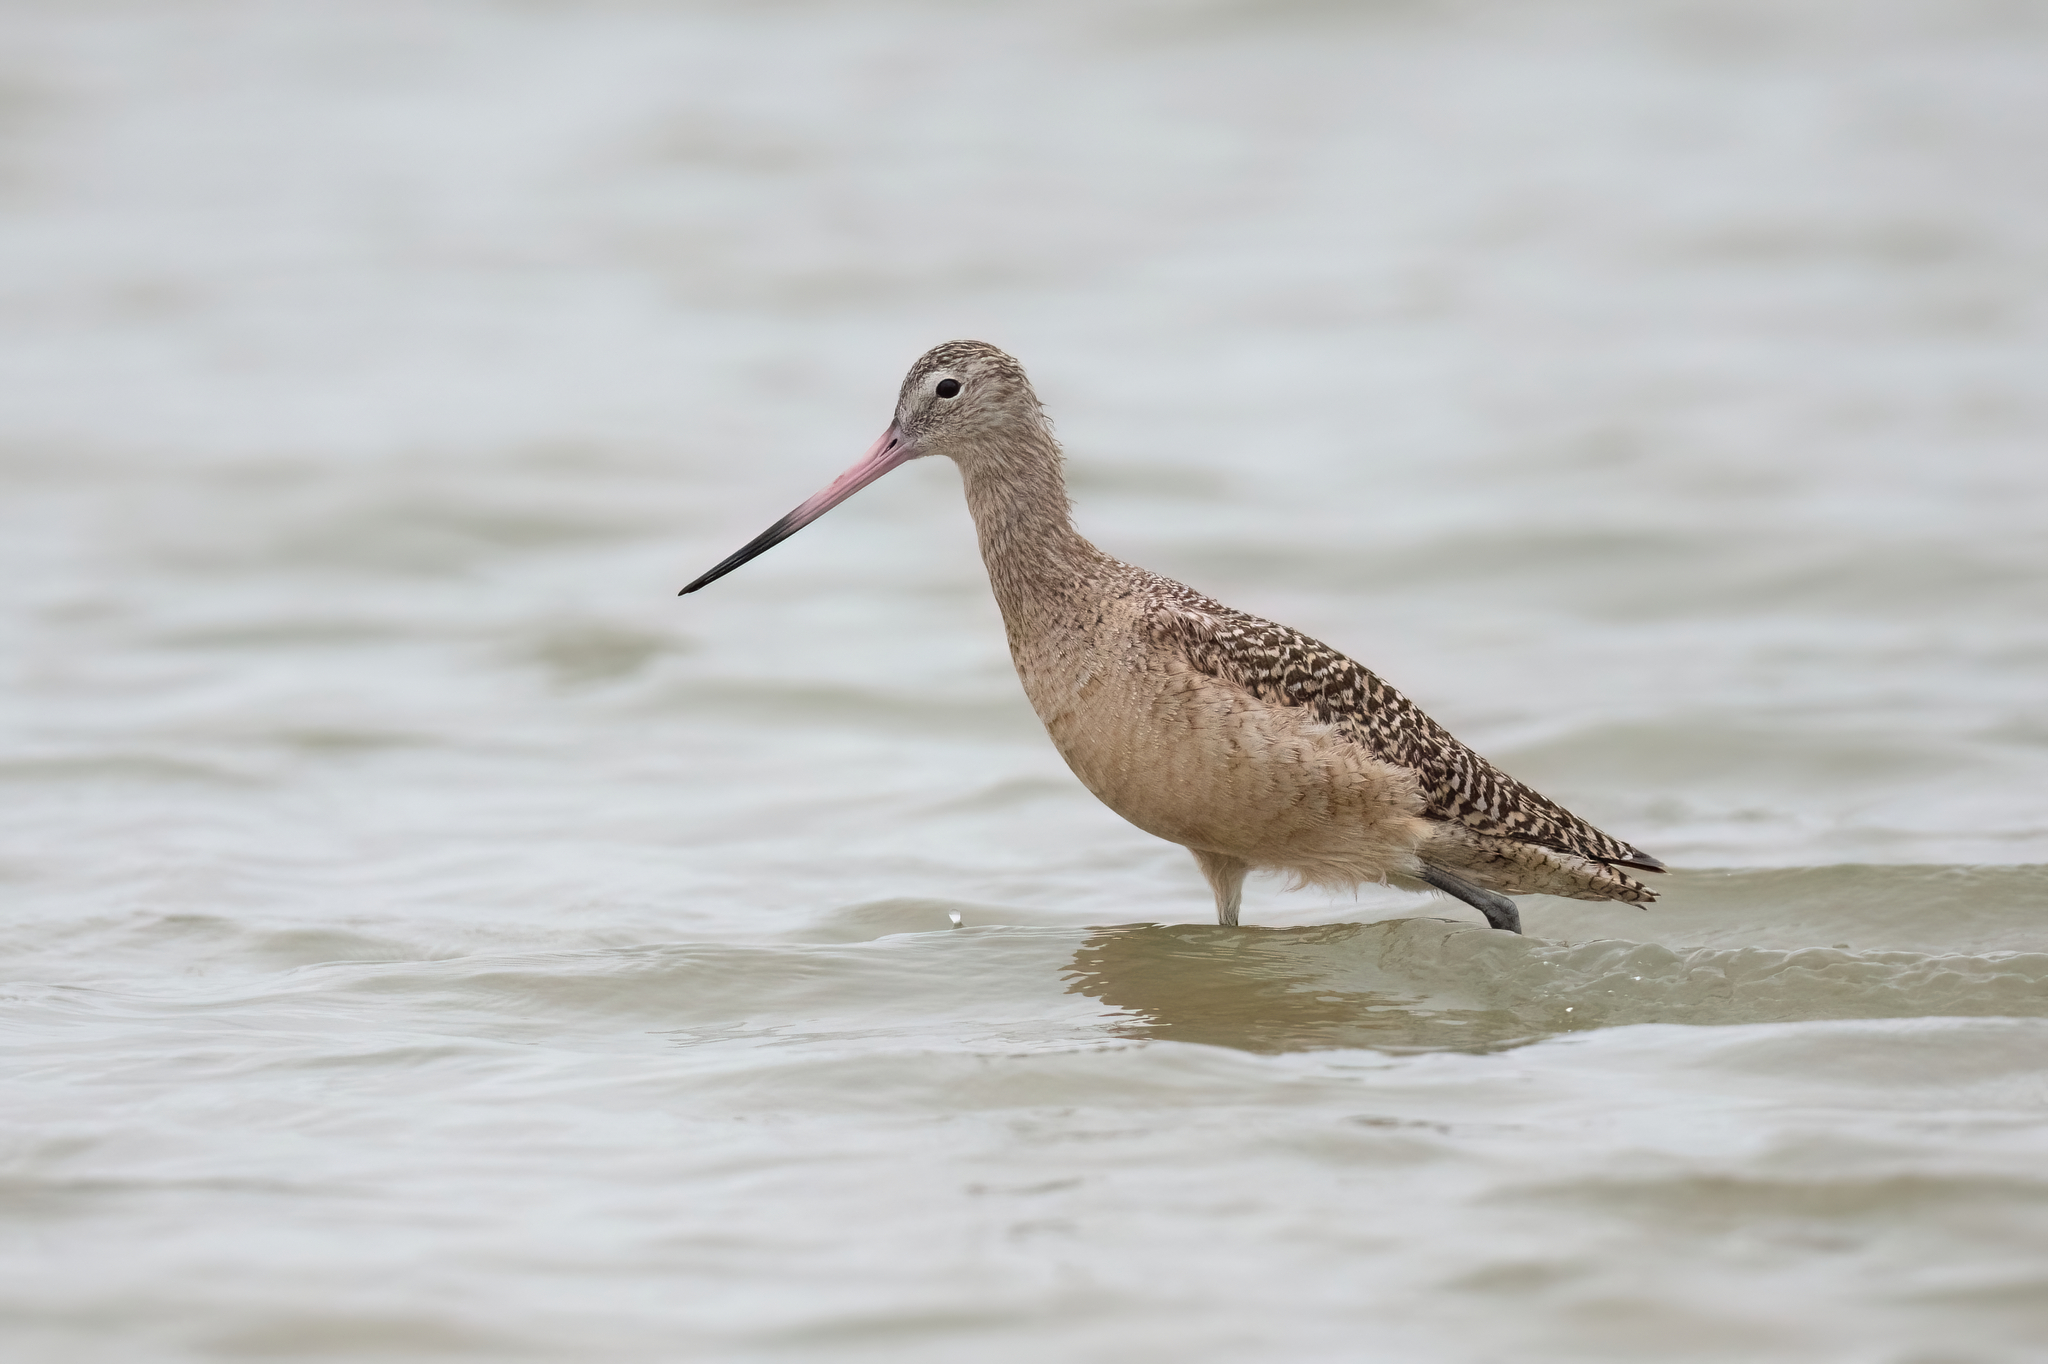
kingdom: Animalia
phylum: Chordata
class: Aves
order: Charadriiformes
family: Scolopacidae
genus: Limosa
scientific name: Limosa fedoa
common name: Marbled godwit
